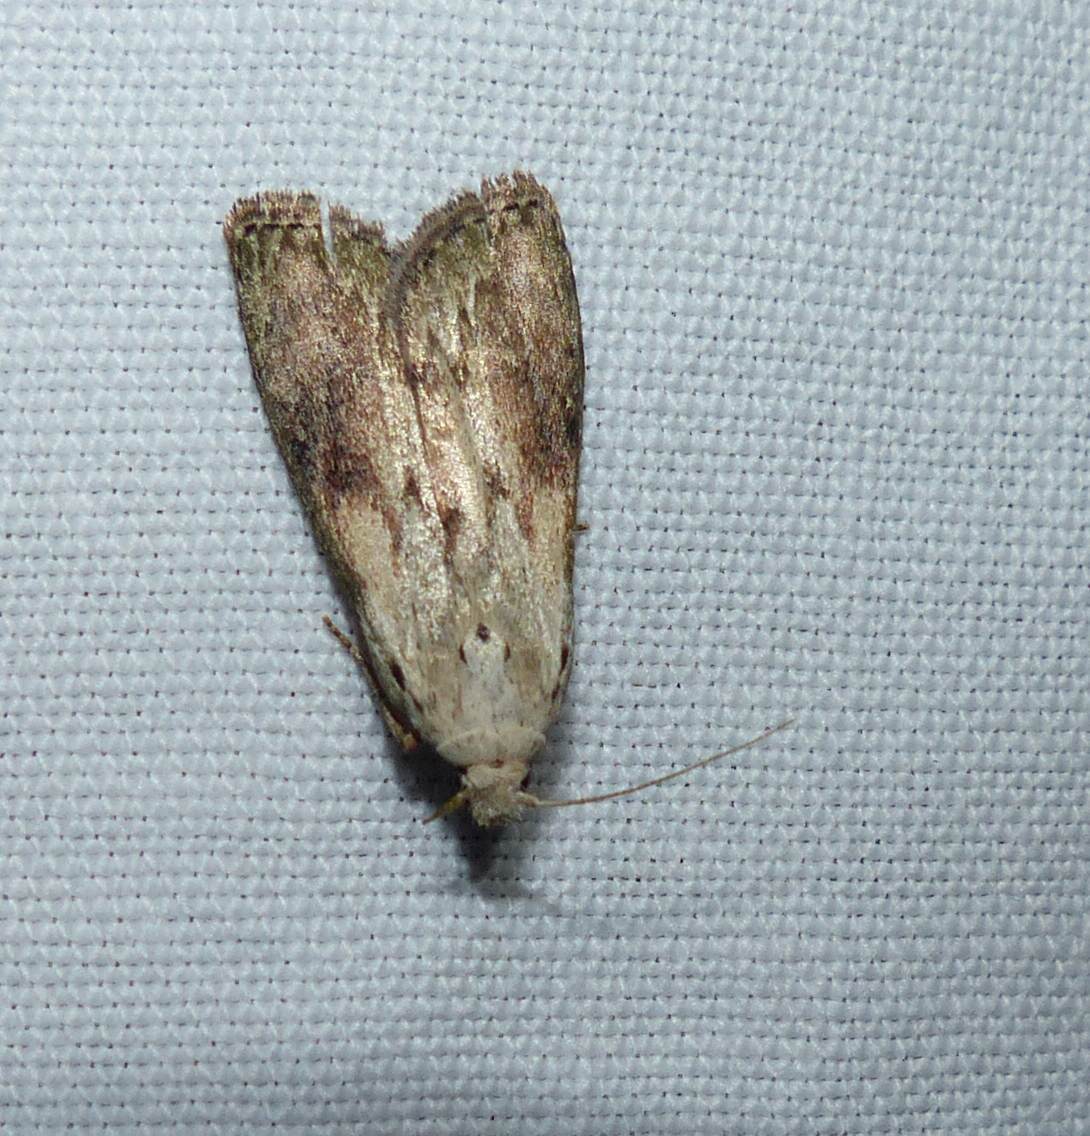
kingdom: Animalia
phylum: Arthropoda
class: Insecta
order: Lepidoptera
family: Pyralidae
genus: Aphomia
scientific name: Aphomia sociella
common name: Bee moth
